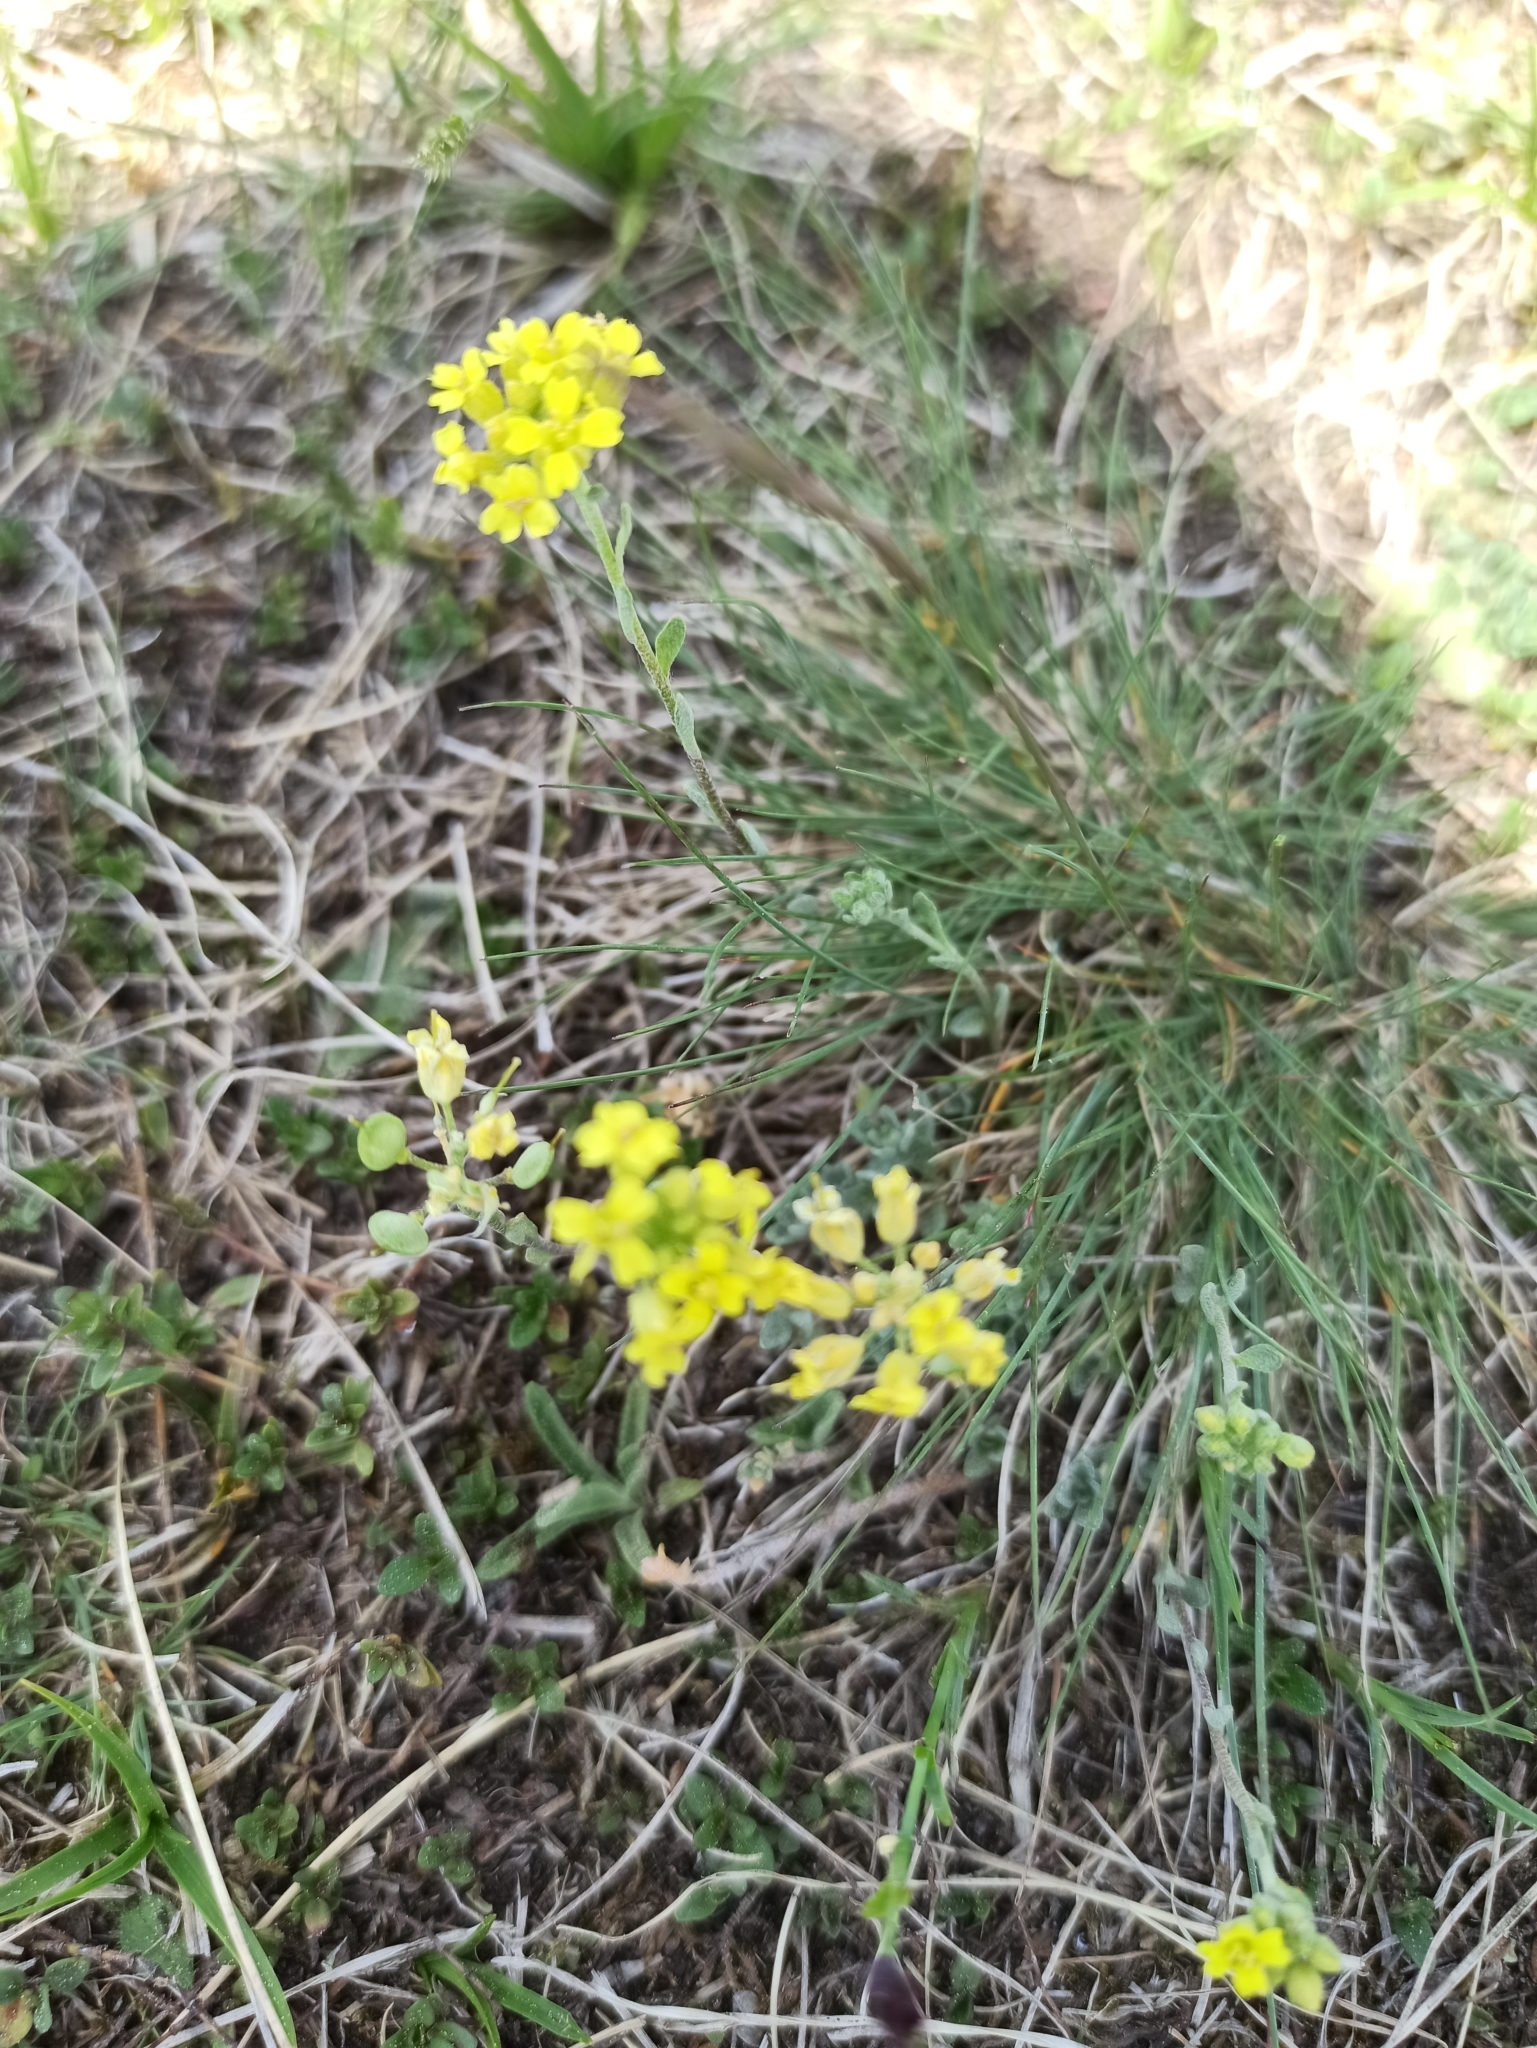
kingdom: Plantae
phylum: Tracheophyta
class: Magnoliopsida
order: Brassicales
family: Brassicaceae
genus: Alyssum
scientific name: Alyssum gmelinii
